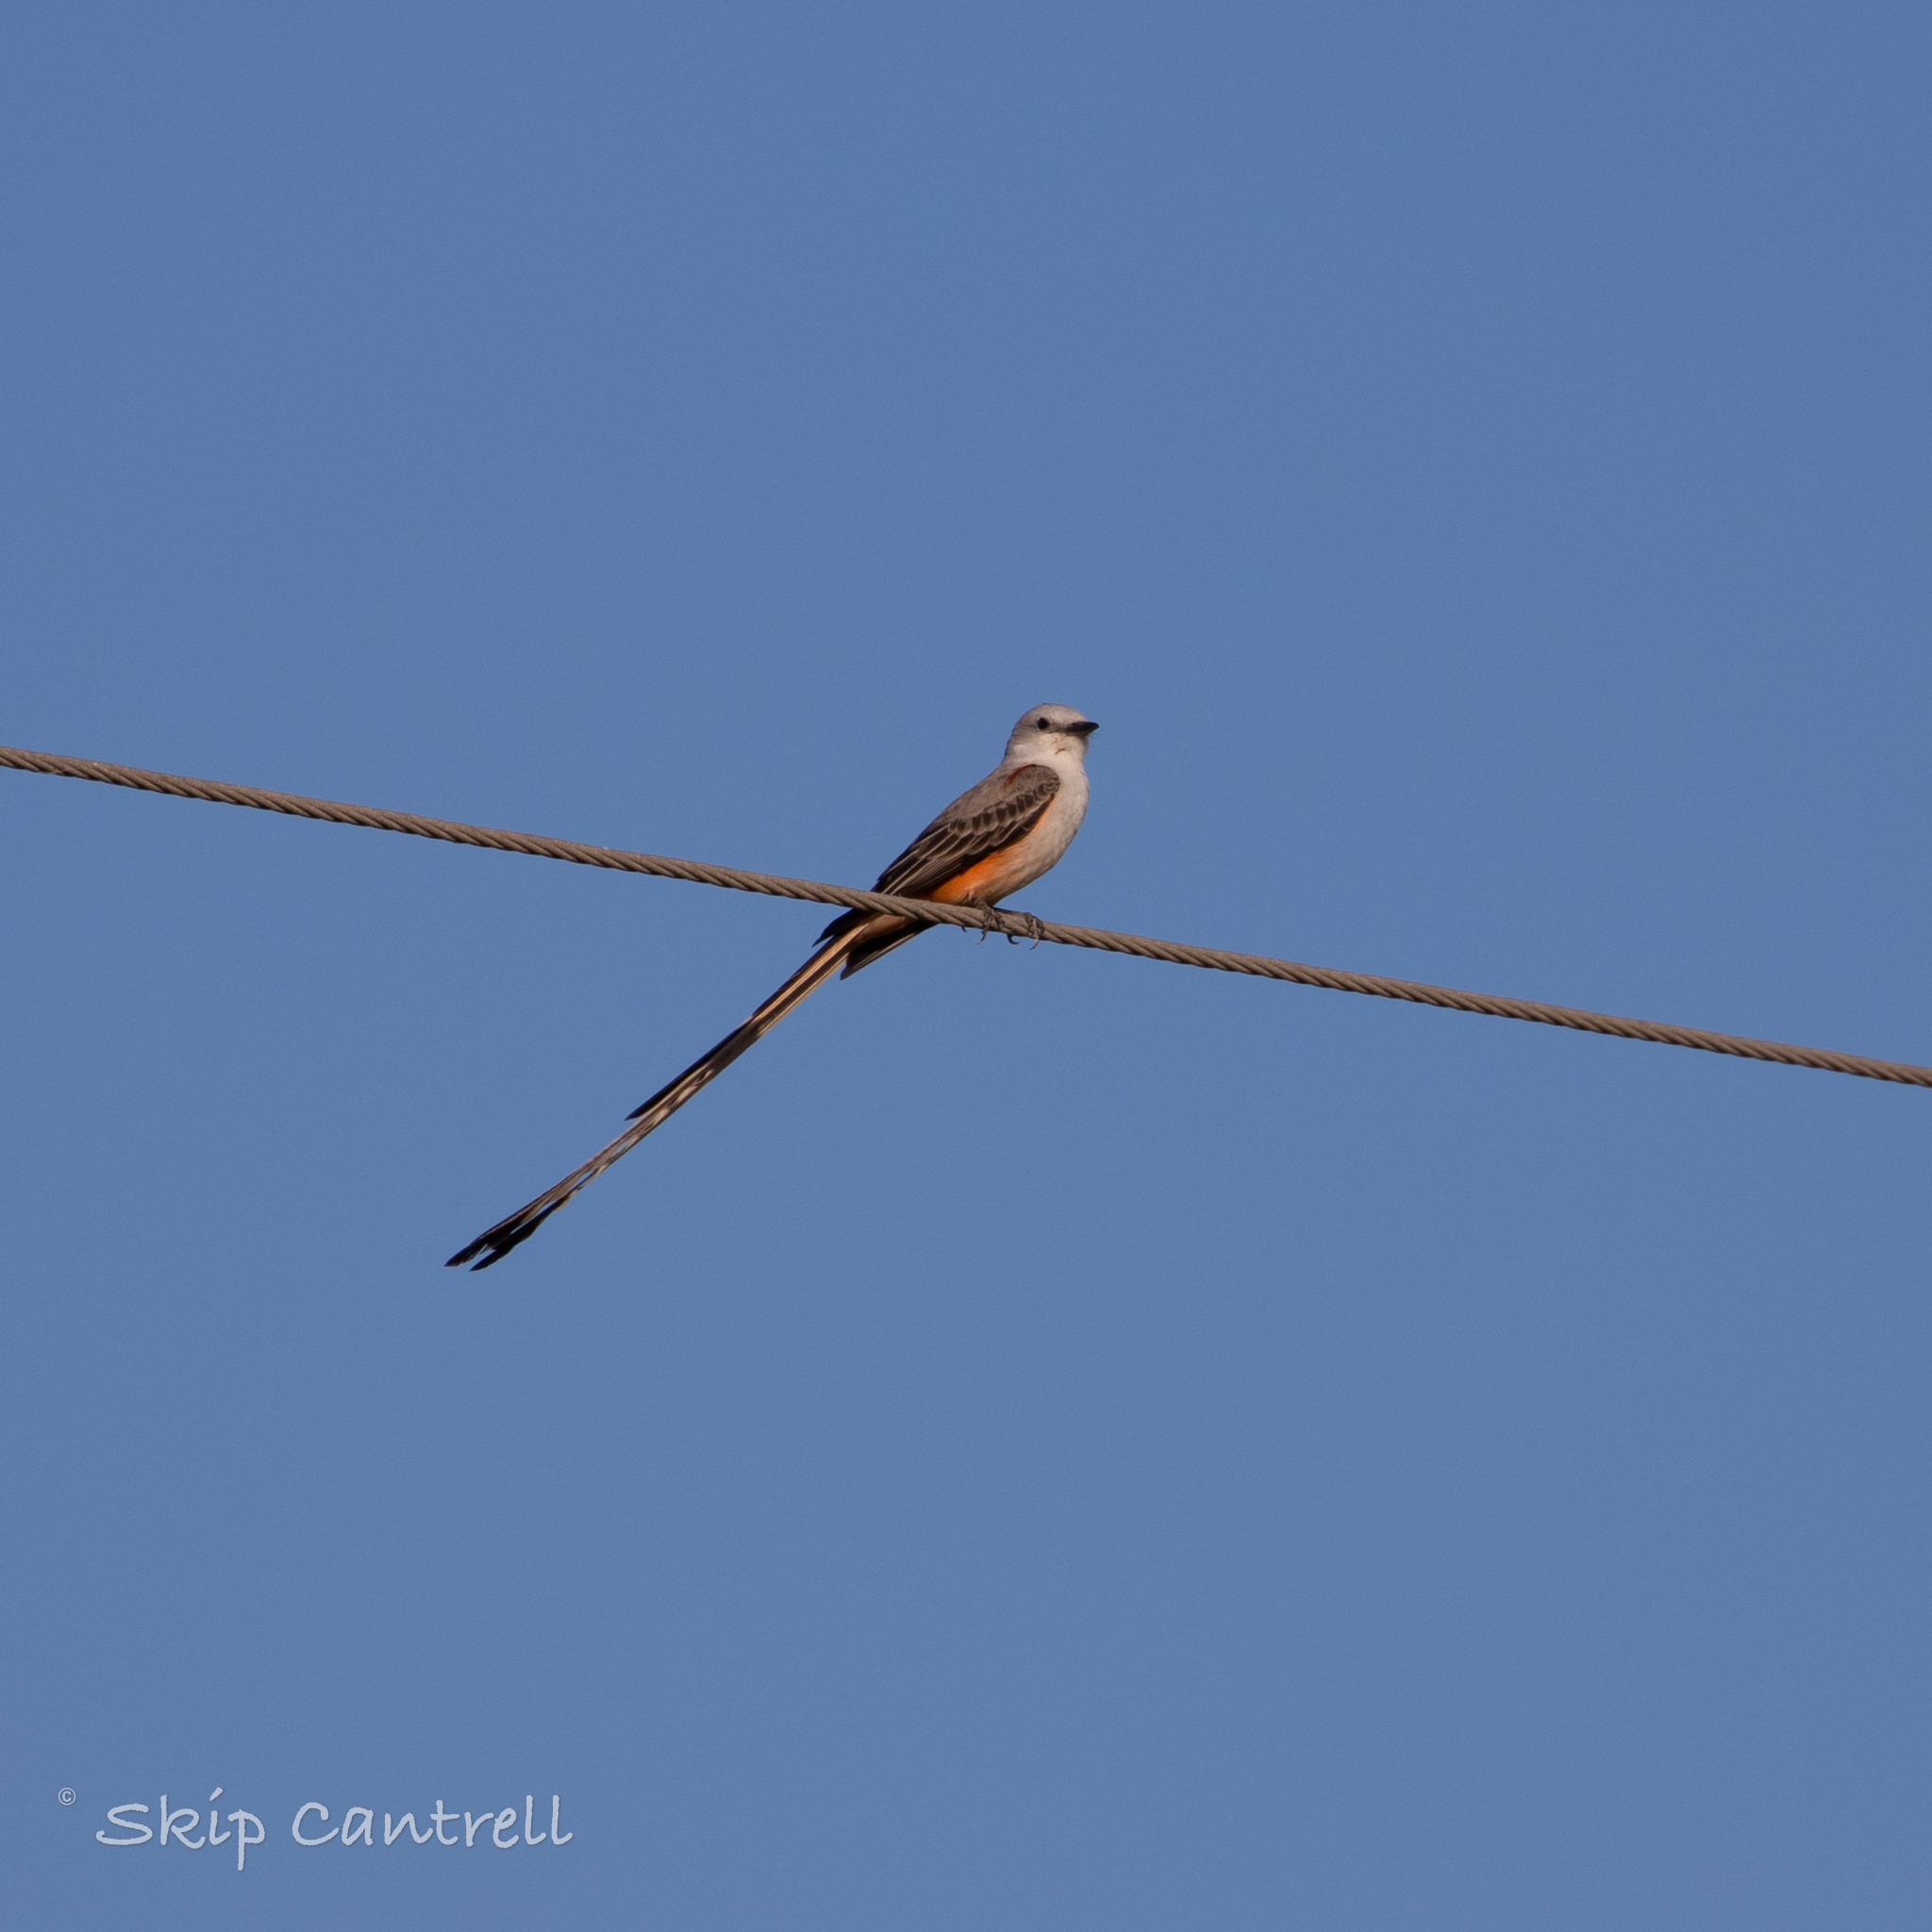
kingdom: Animalia
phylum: Chordata
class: Aves
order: Passeriformes
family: Tyrannidae
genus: Tyrannus
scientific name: Tyrannus forficatus
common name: Scissor-tailed flycatcher
